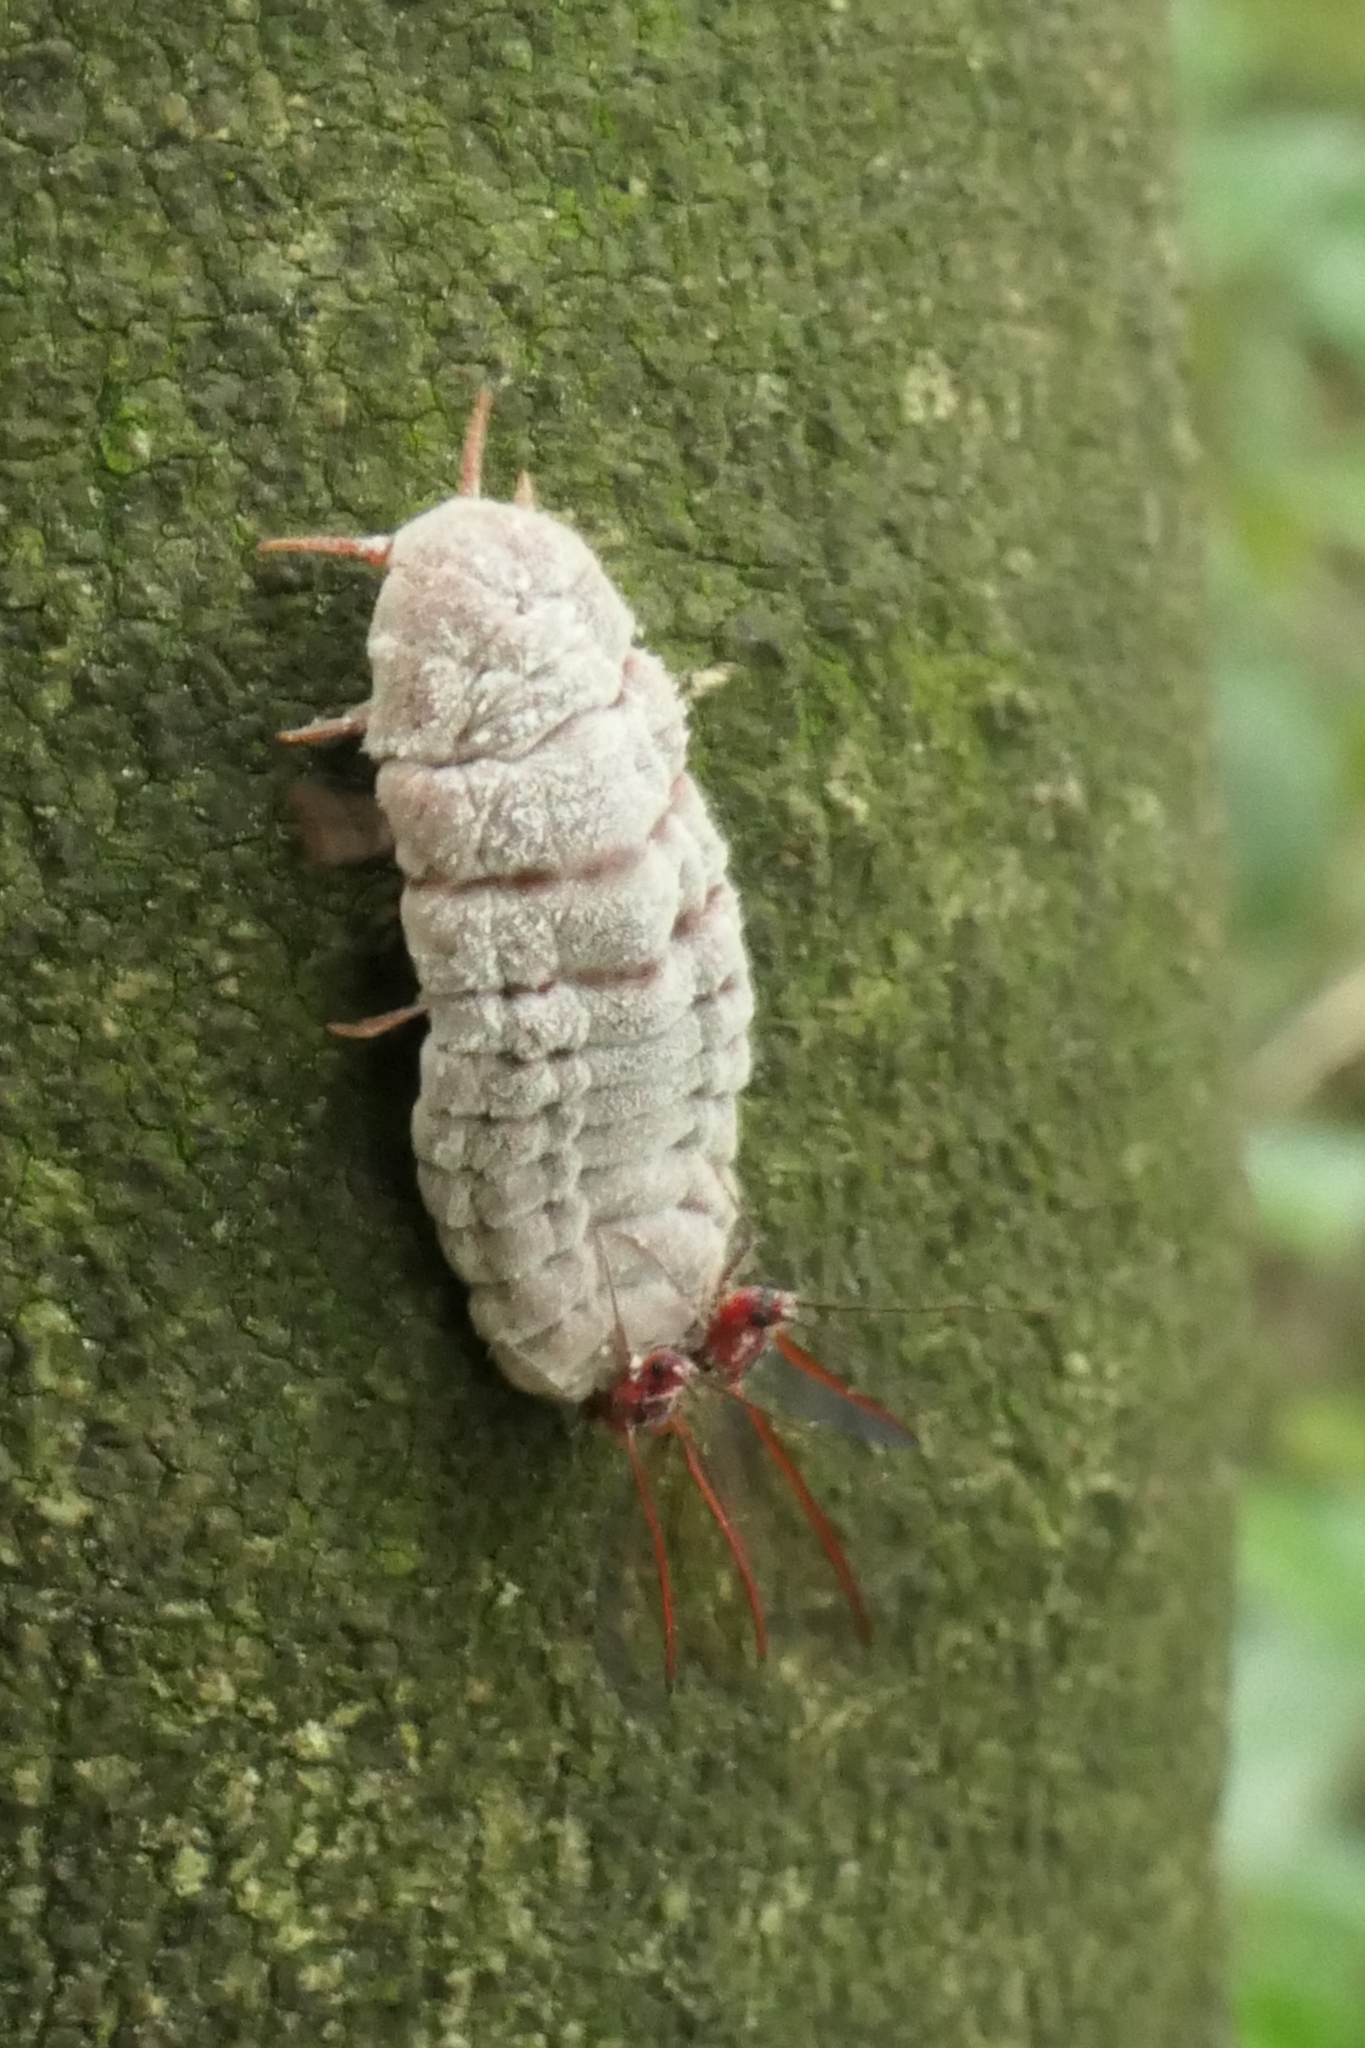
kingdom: Animalia
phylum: Arthropoda
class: Insecta
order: Hemiptera
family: Margarodidae
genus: Coelostomidia
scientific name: Coelostomidia zealandica
